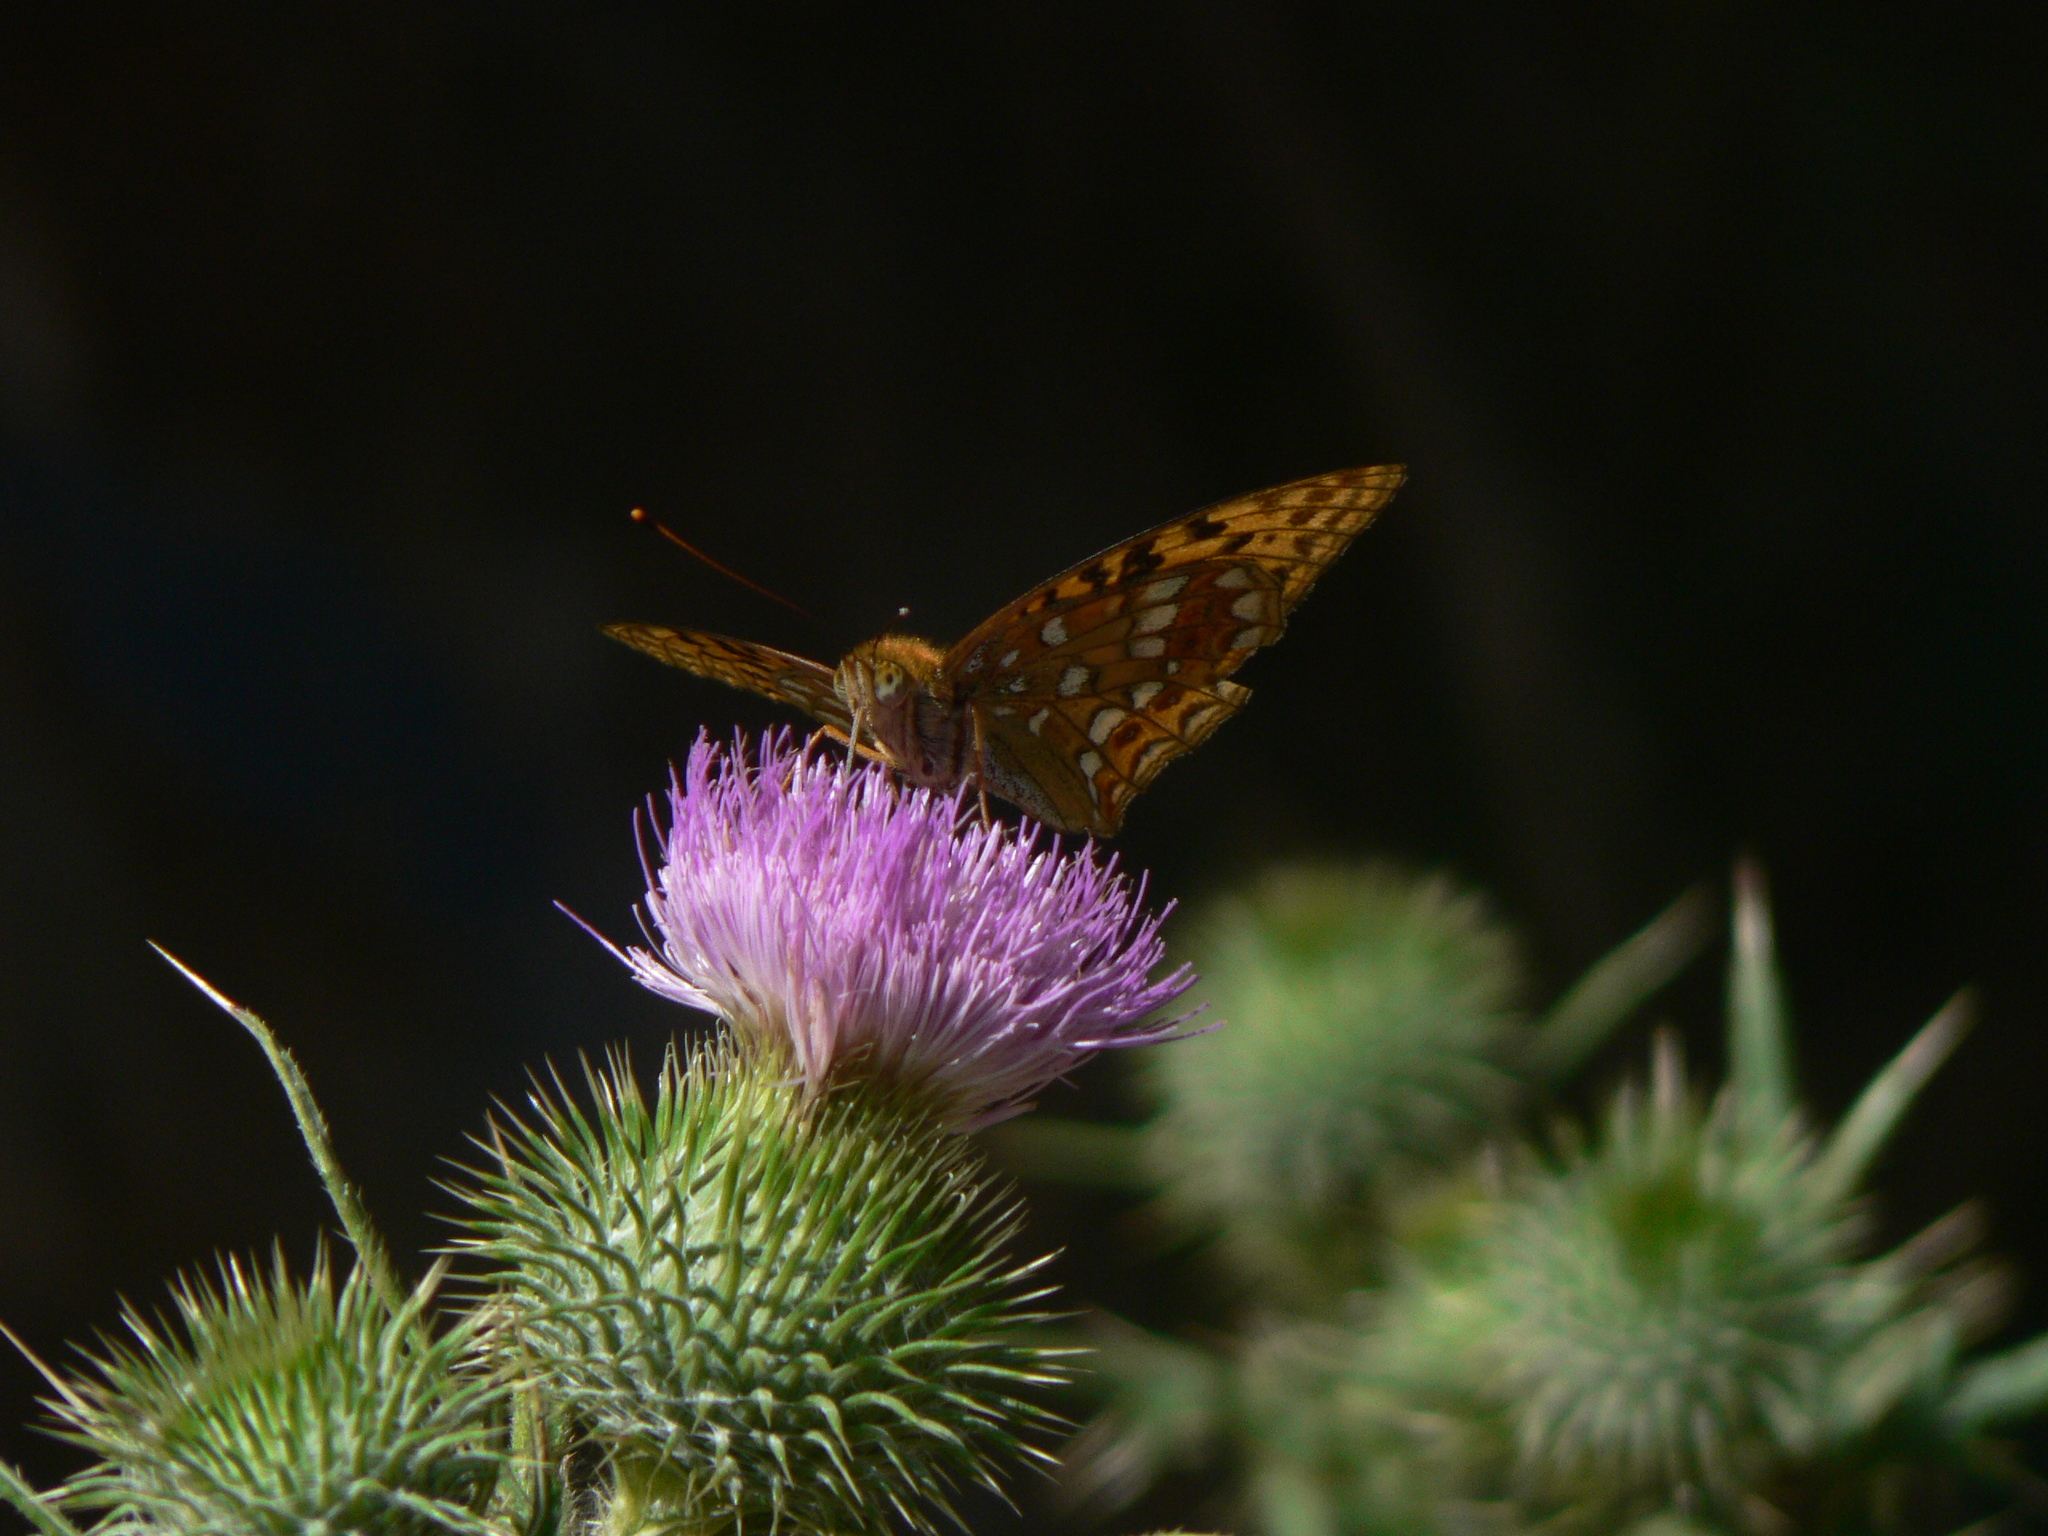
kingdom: Animalia
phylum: Arthropoda
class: Insecta
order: Lepidoptera
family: Nymphalidae
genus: Fabriciana
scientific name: Fabriciana adippe
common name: High brown fritillary
